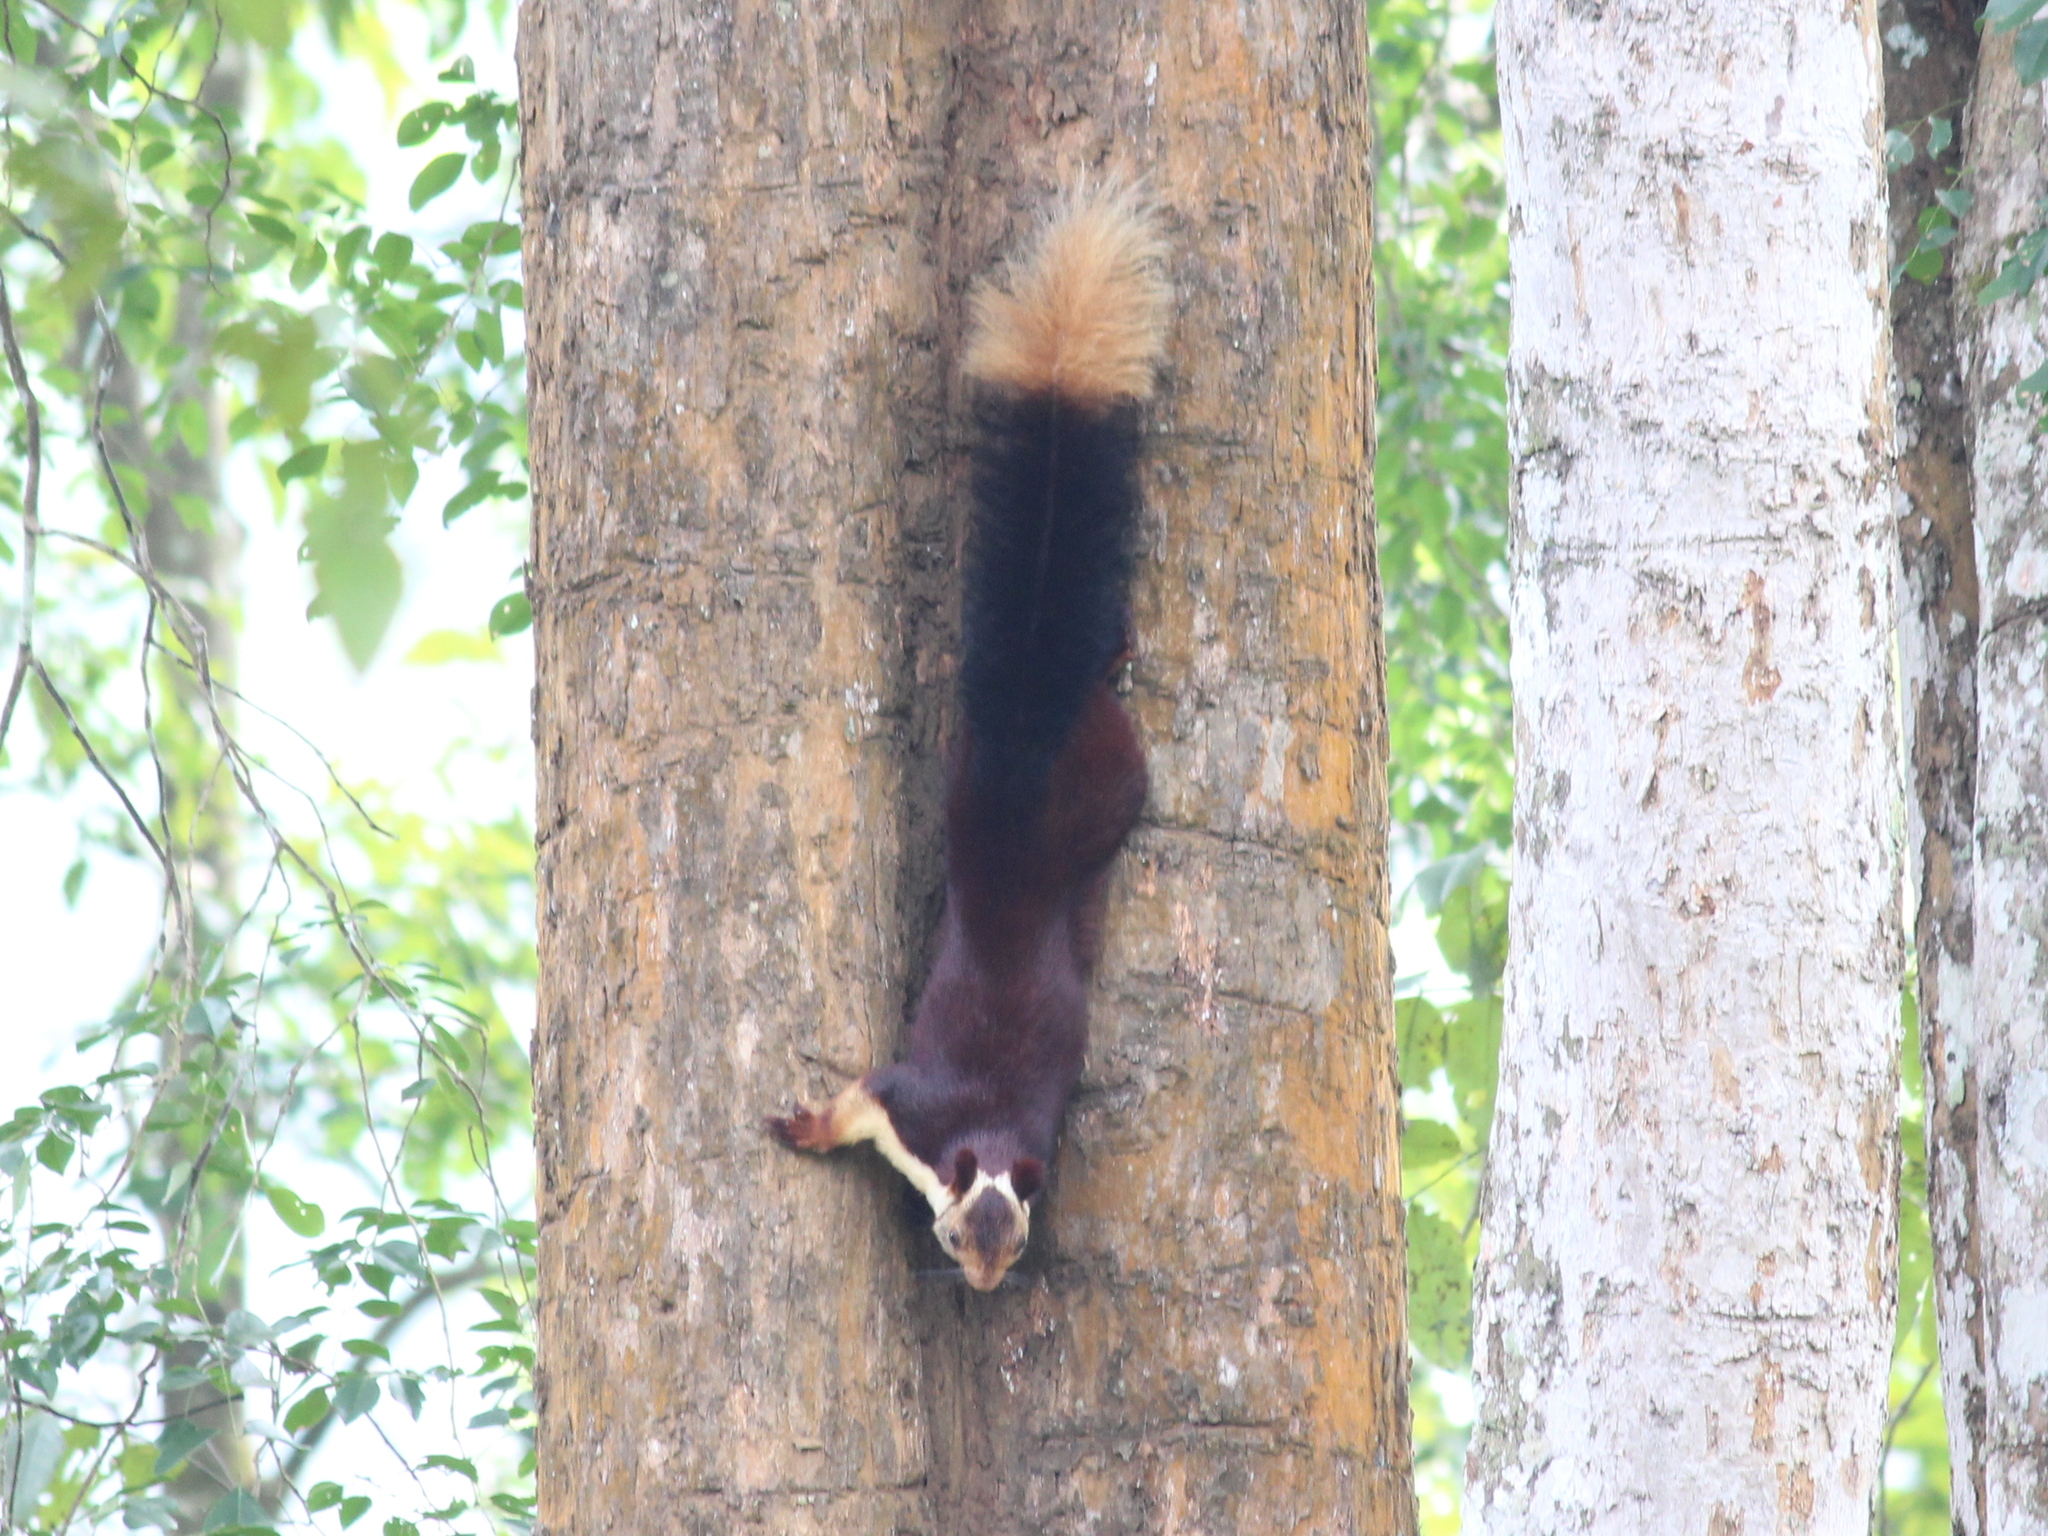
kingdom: Animalia
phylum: Chordata
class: Mammalia
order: Rodentia
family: Sciuridae
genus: Ratufa
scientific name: Ratufa indica
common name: Indian giant squirrel
